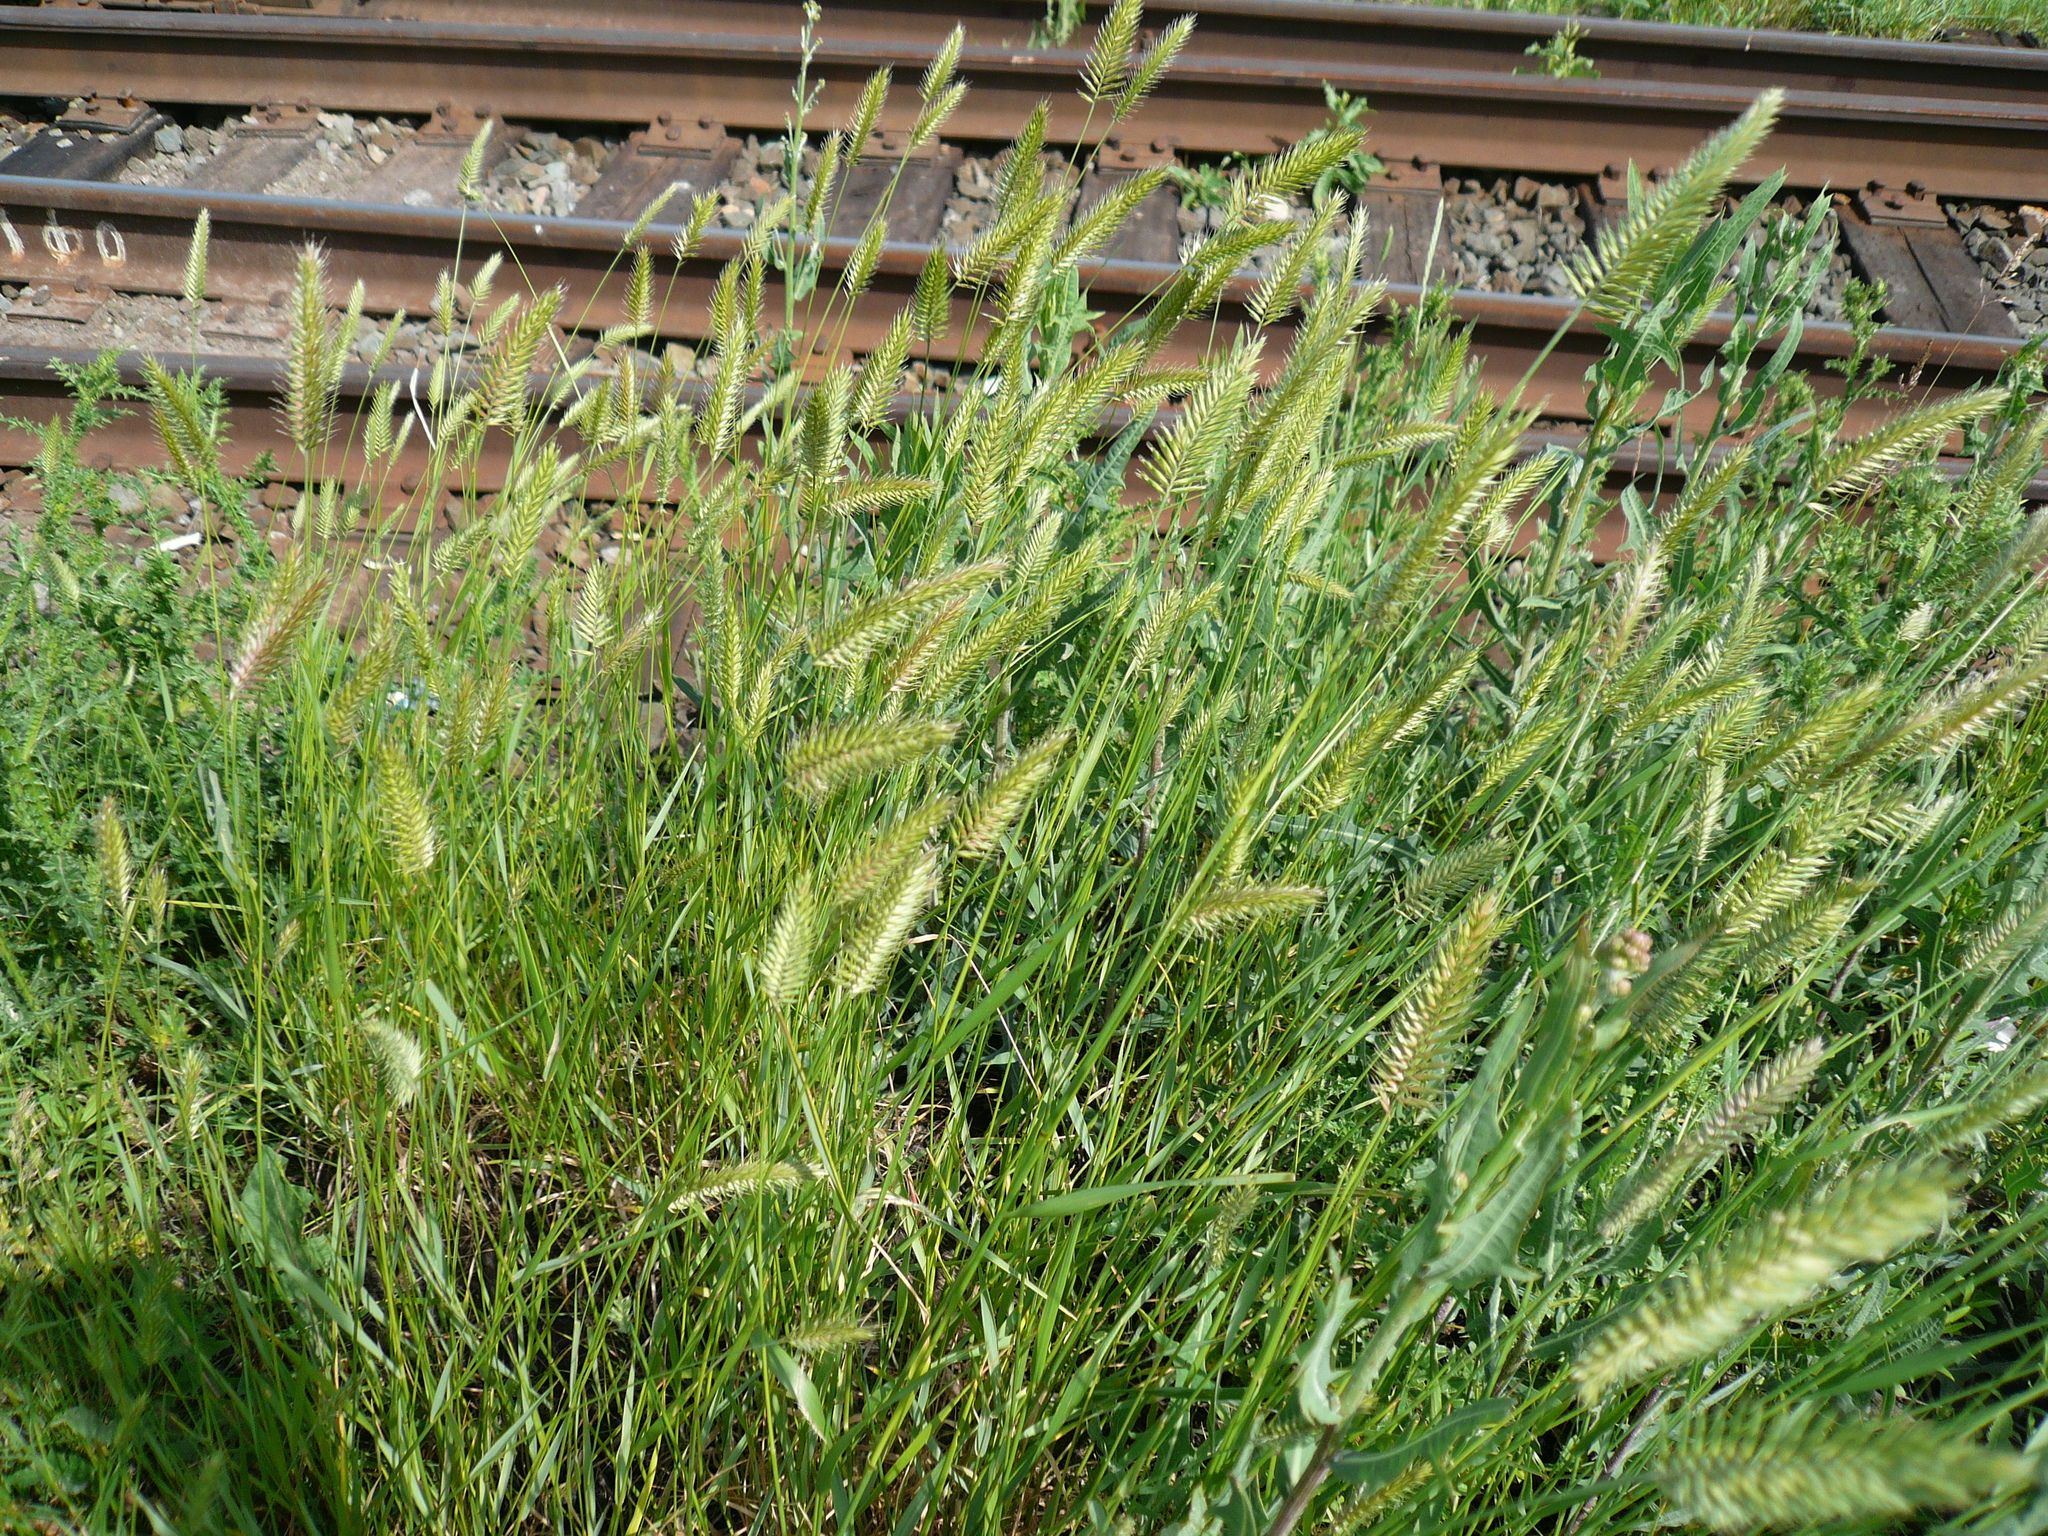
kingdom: Plantae
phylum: Tracheophyta
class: Liliopsida
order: Poales
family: Poaceae
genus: Agropyron
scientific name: Agropyron cristatum
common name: Crested wheatgrass
